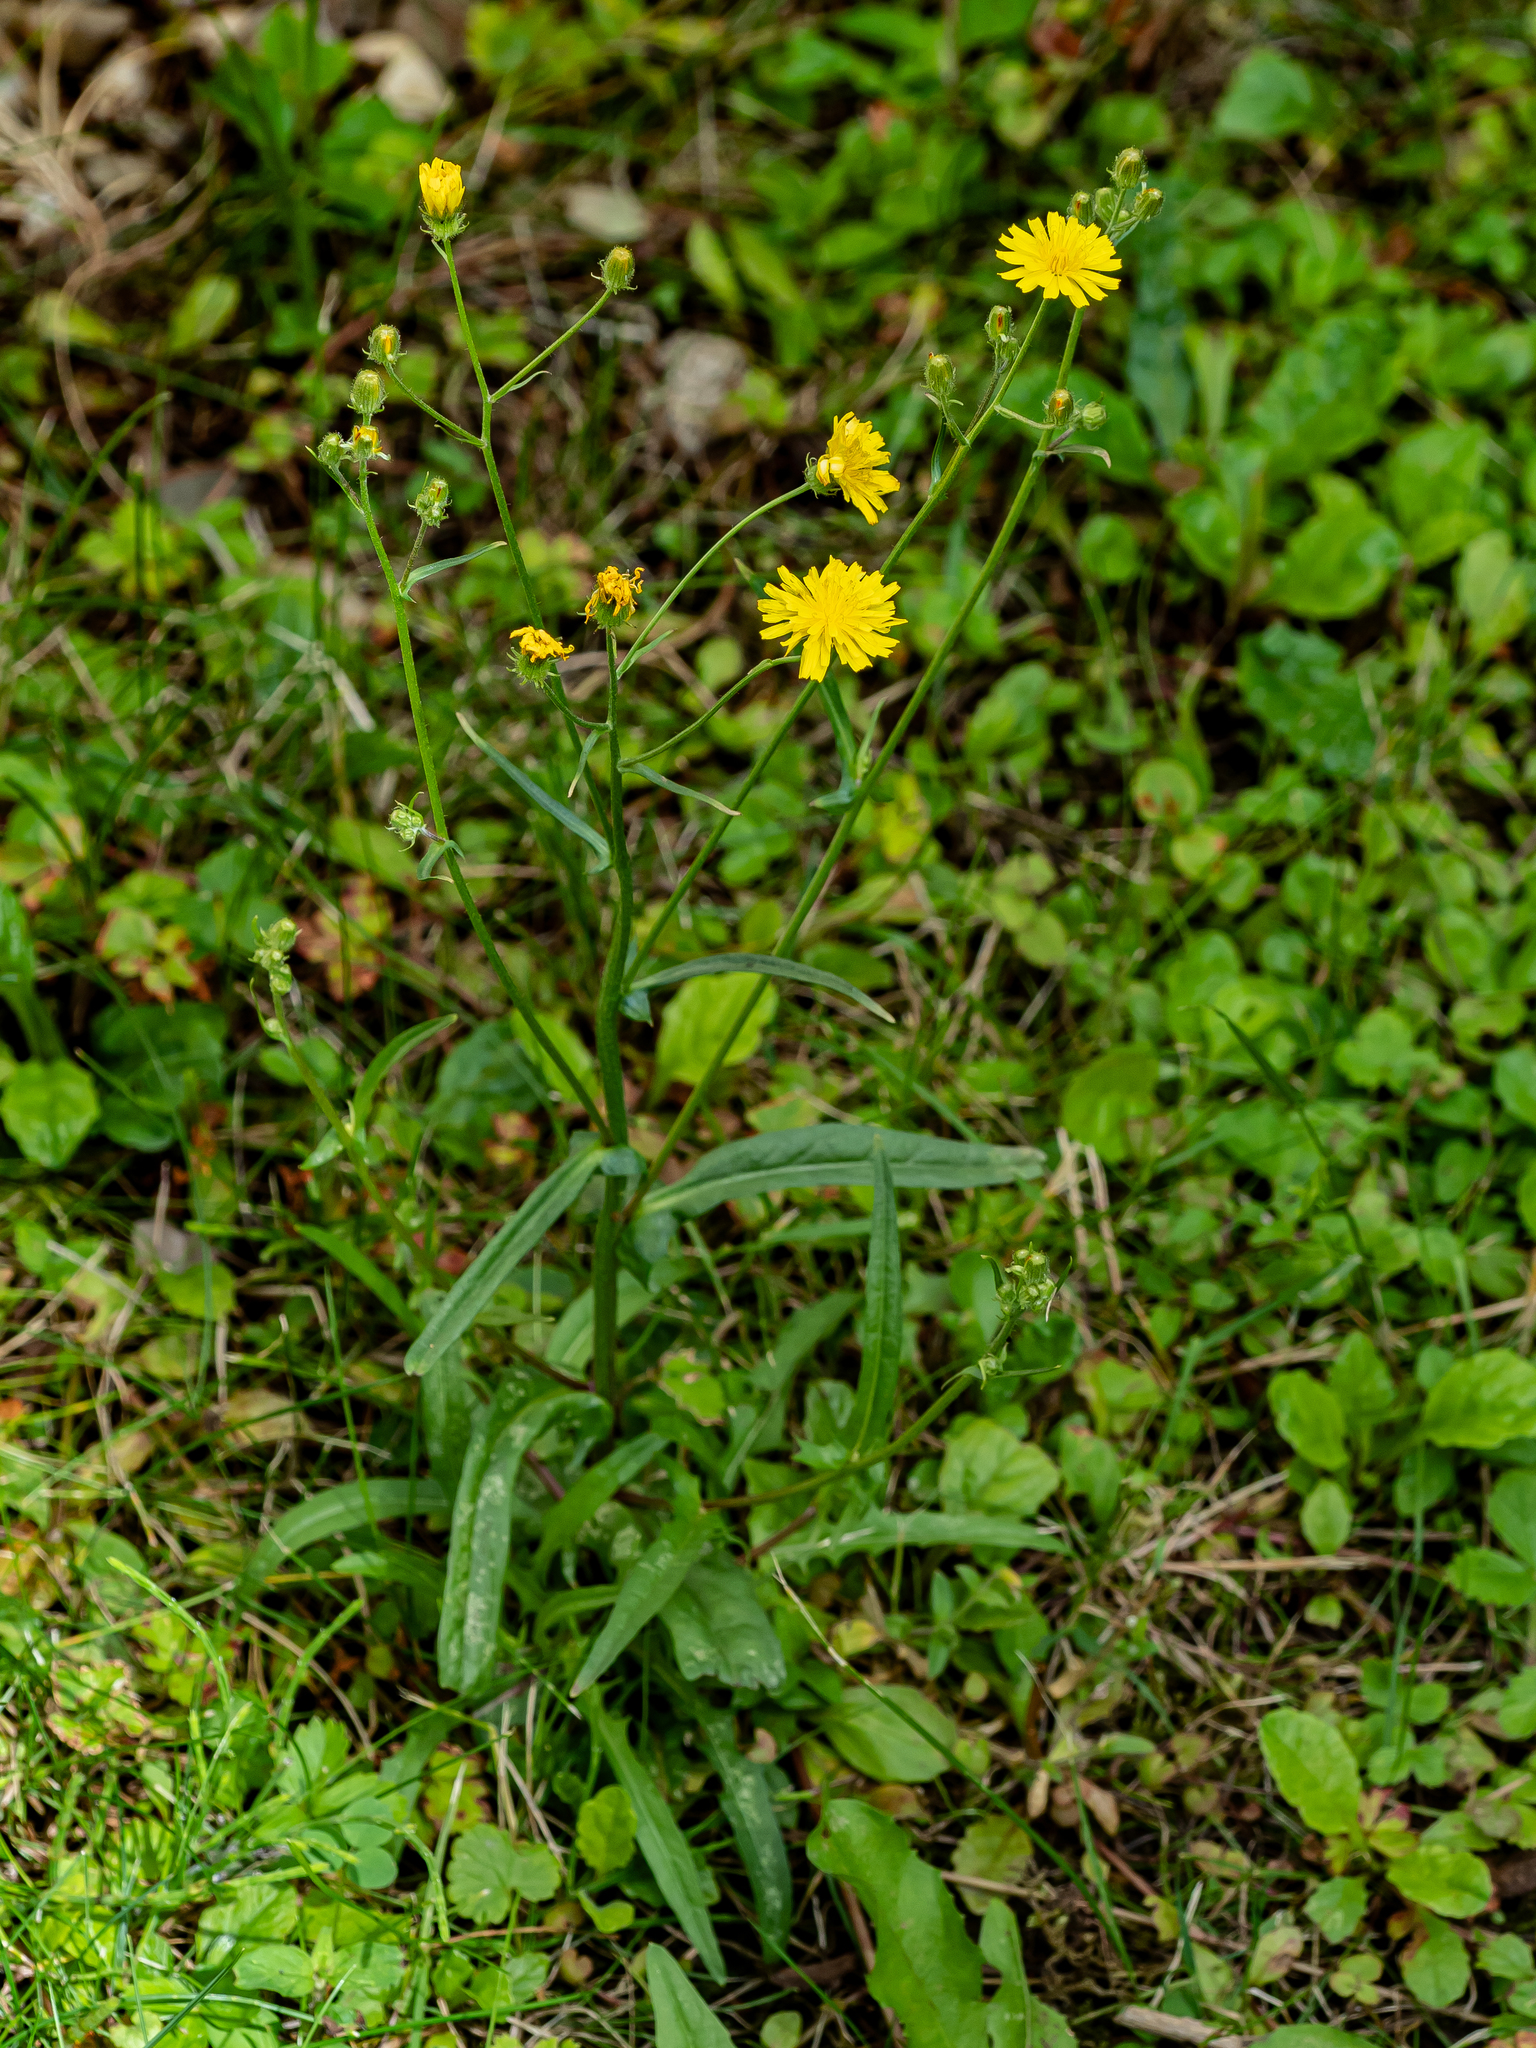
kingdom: Plantae
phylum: Tracheophyta
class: Magnoliopsida
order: Asterales
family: Asteraceae
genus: Crepis
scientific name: Crepis capillaris
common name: Smooth hawksbeard
